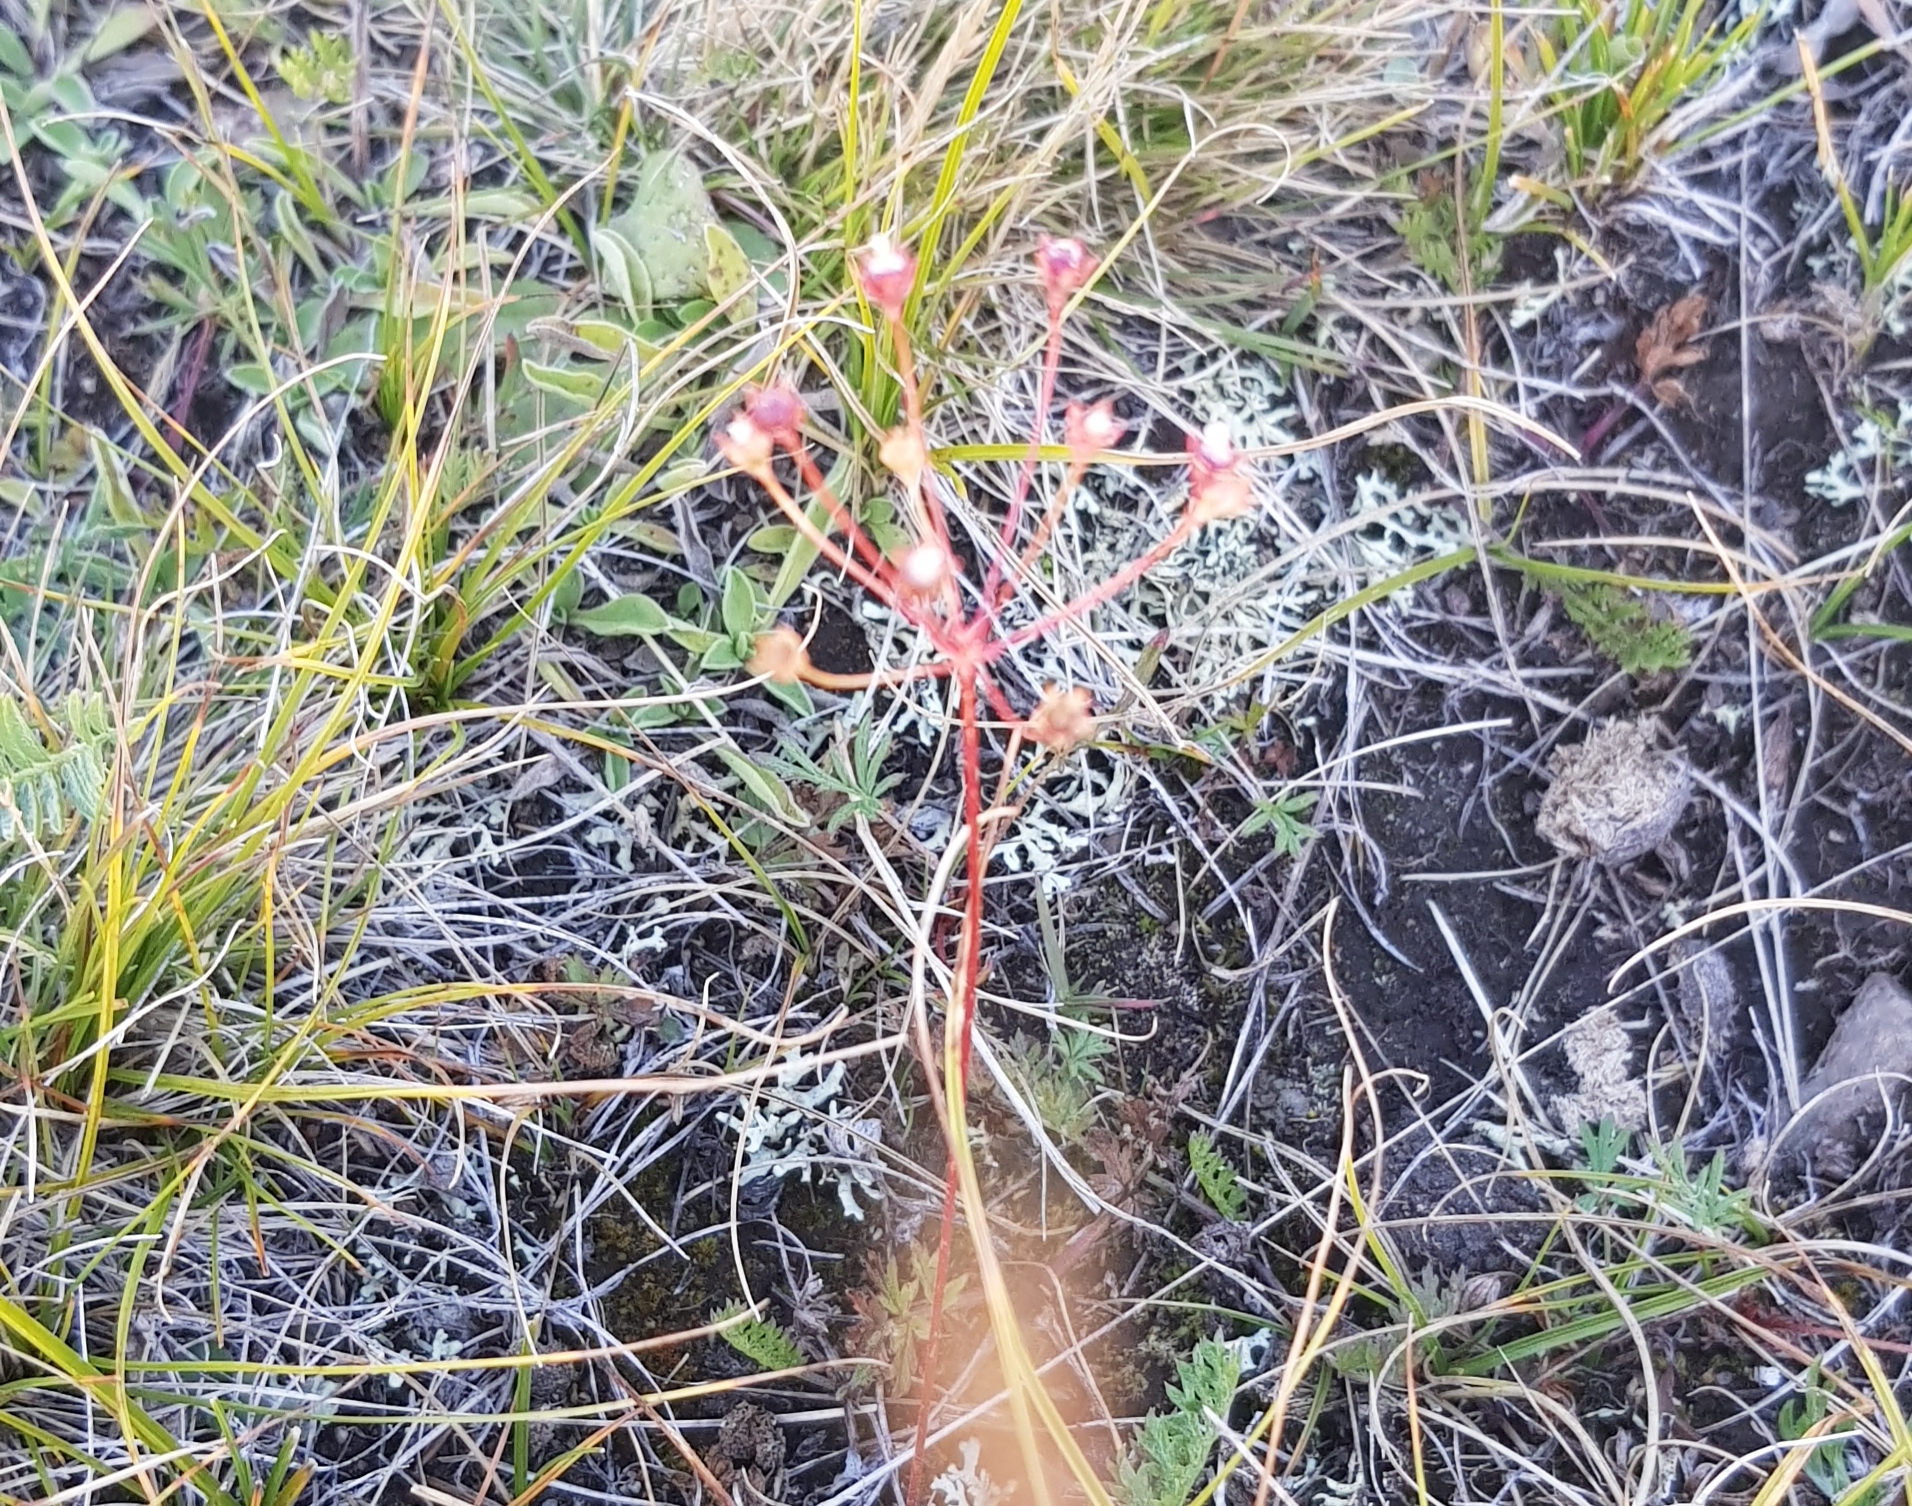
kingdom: Plantae
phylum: Tracheophyta
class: Magnoliopsida
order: Ericales
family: Primulaceae
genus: Androsace
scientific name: Androsace septentrionalis
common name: Hairy northern fairy-candelabra
